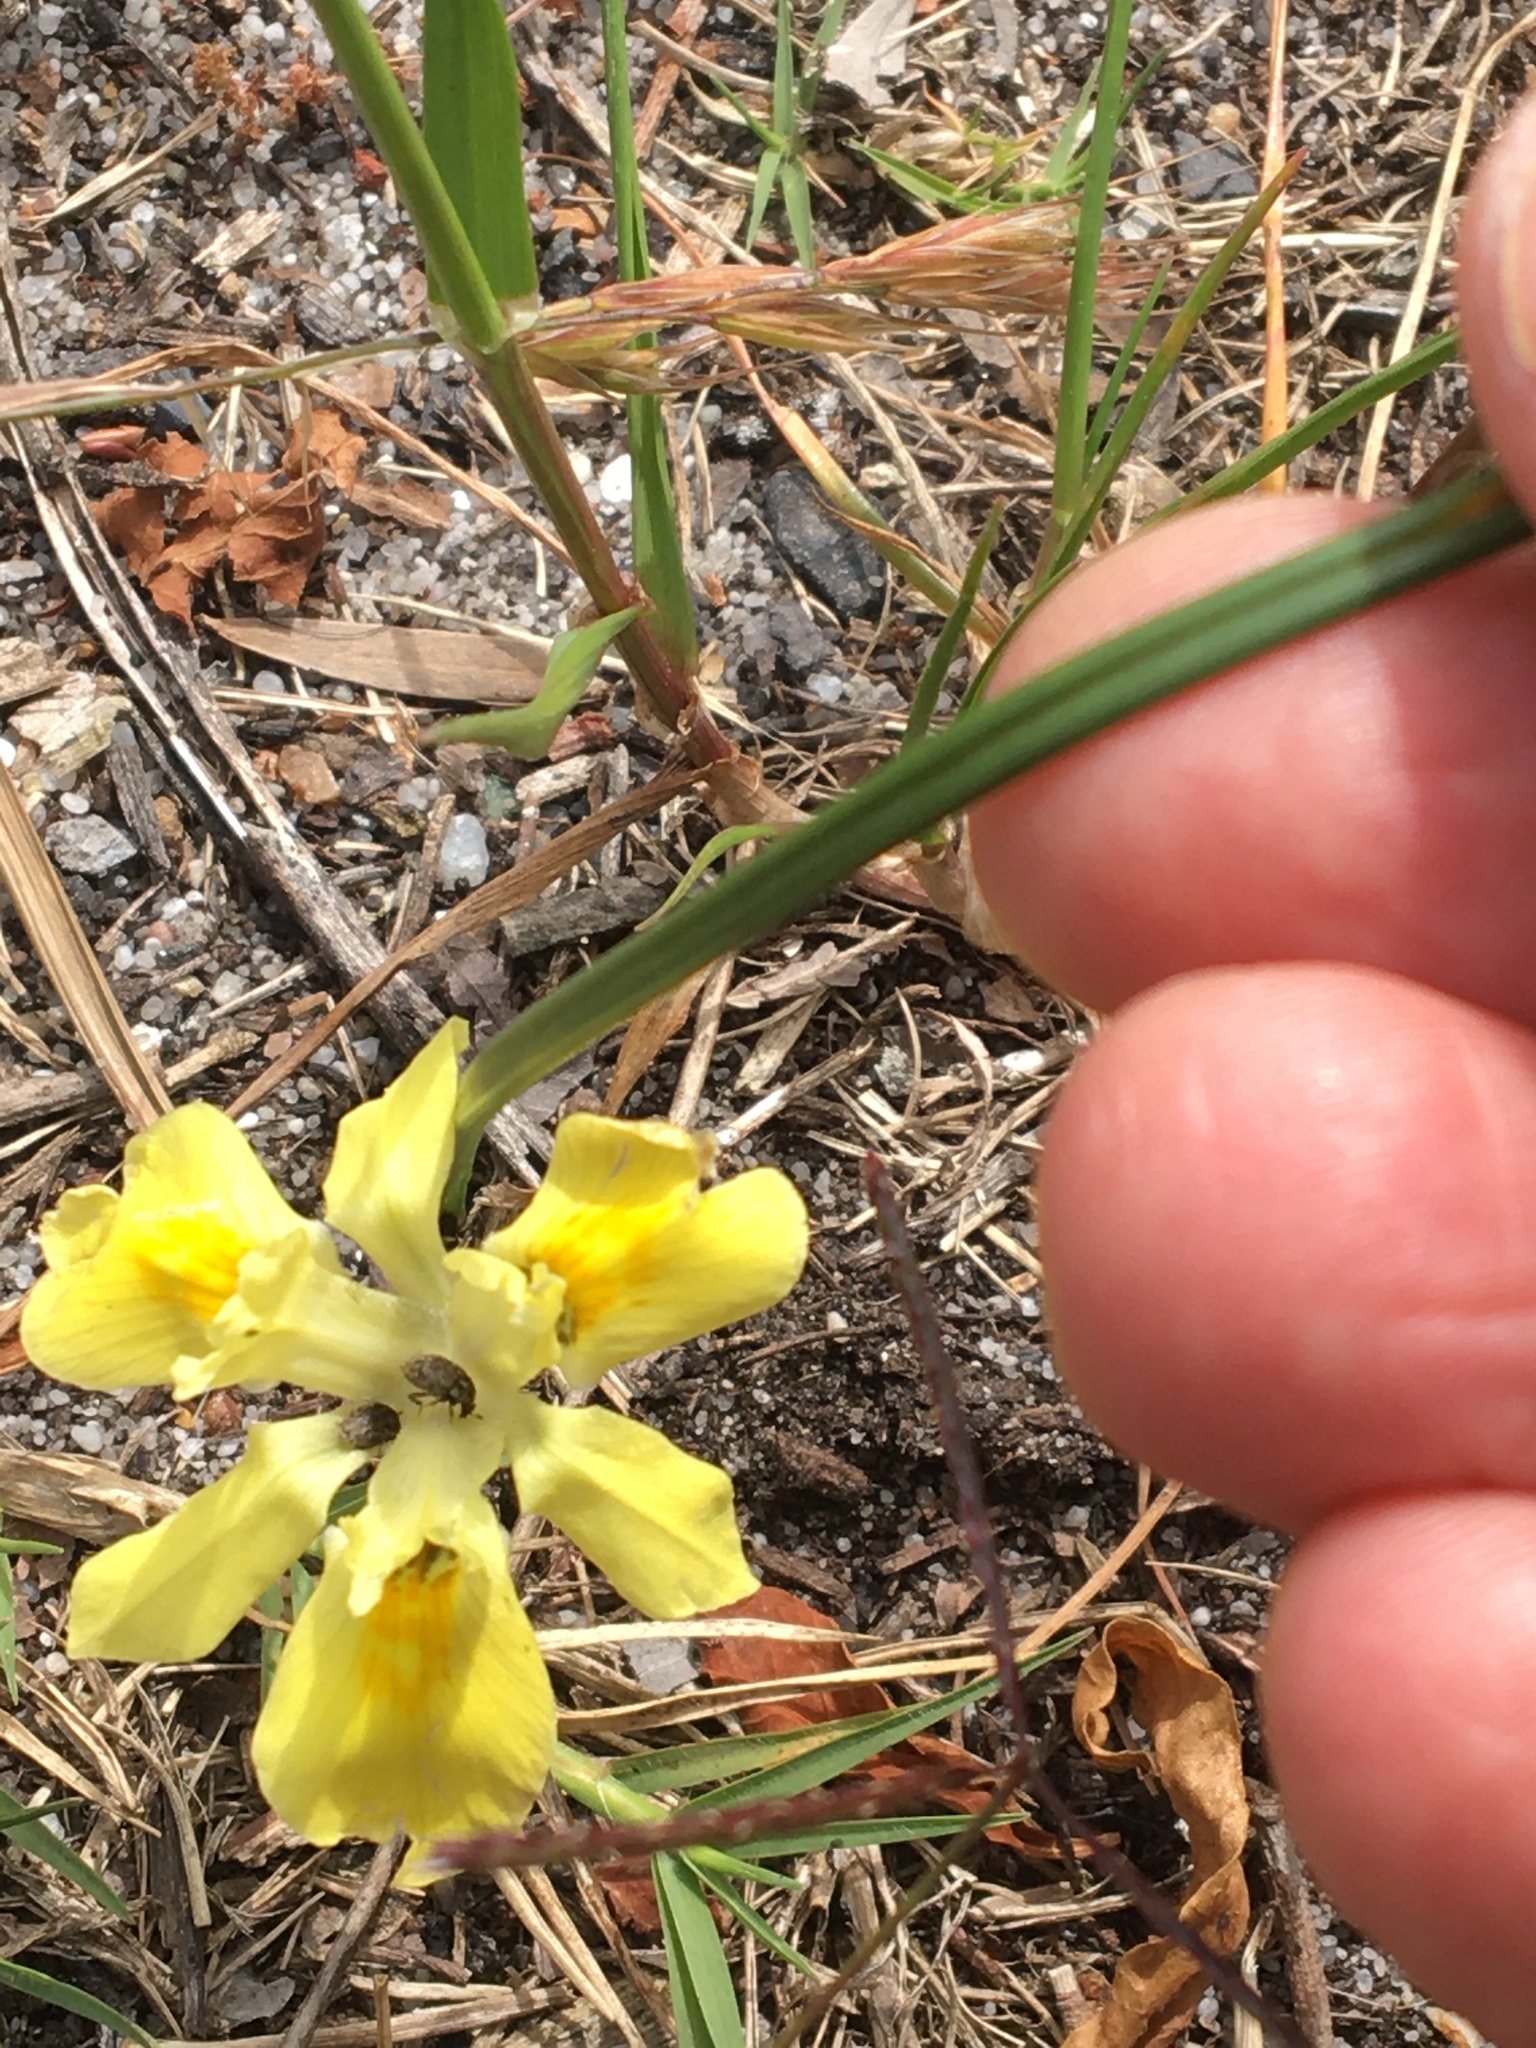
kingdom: Plantae
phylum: Tracheophyta
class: Liliopsida
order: Asparagales
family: Iridaceae
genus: Moraea
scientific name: Moraea fugax
